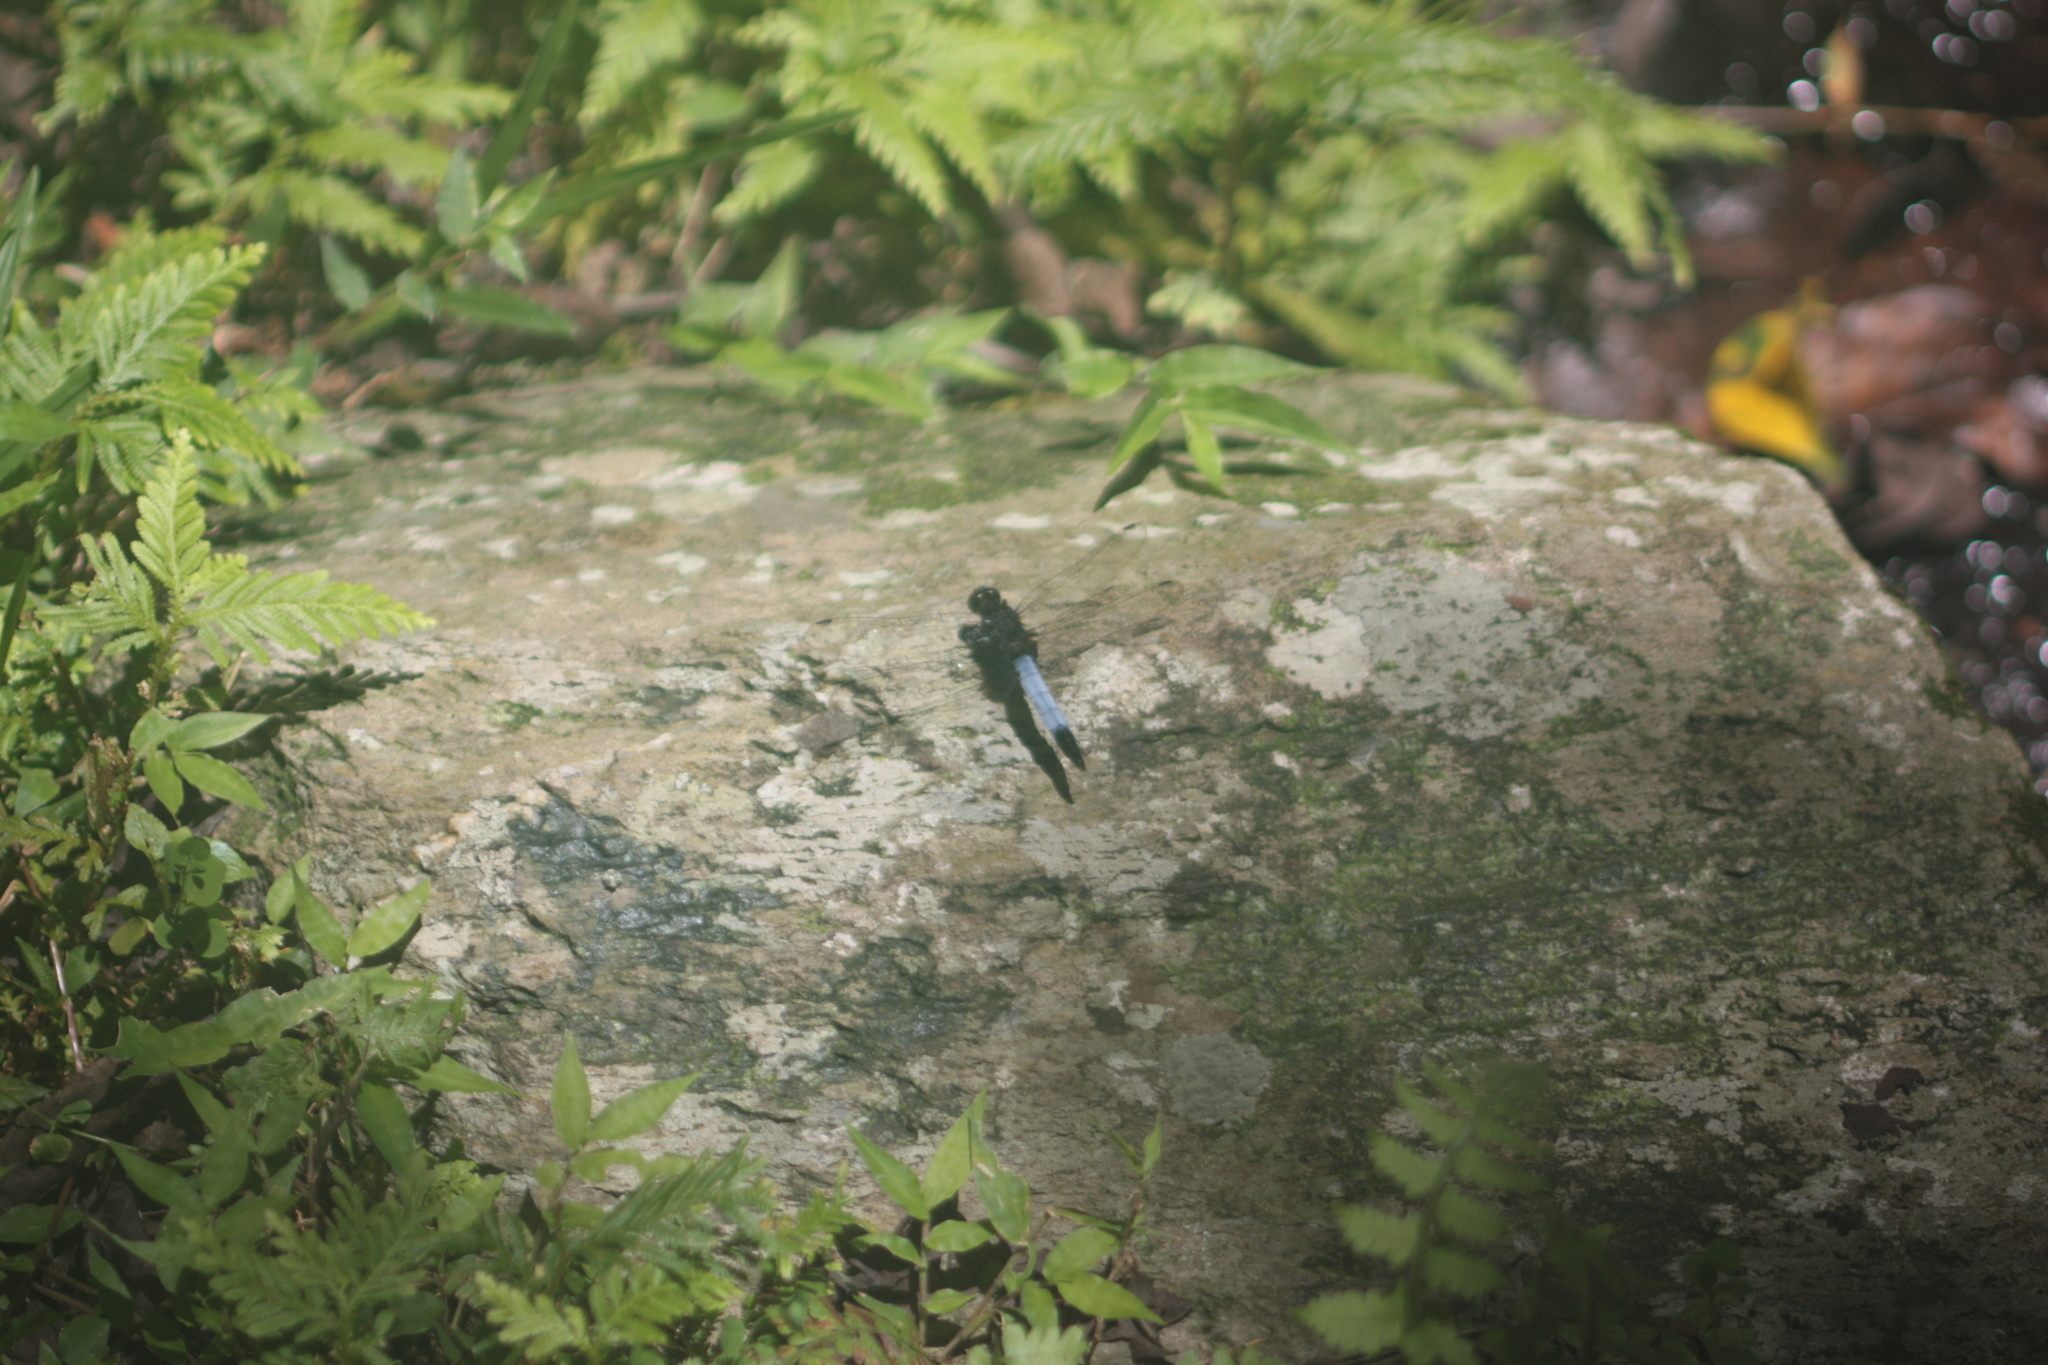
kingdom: Animalia
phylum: Arthropoda
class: Insecta
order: Odonata
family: Libellulidae
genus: Orthetrum
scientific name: Orthetrum triangulare
